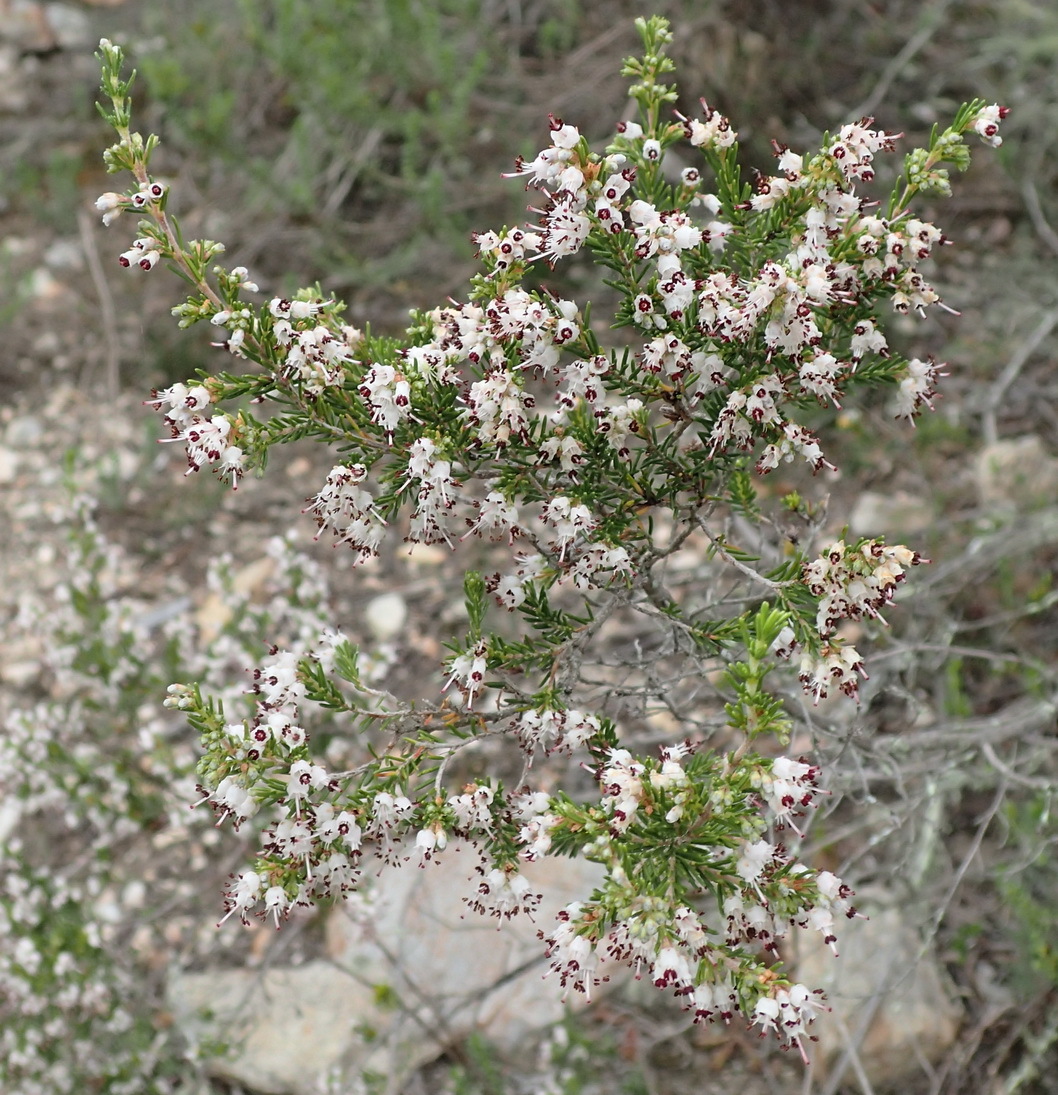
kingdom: Plantae
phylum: Tracheophyta
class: Magnoliopsida
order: Ericales
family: Ericaceae
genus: Erica
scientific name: Erica demissa
